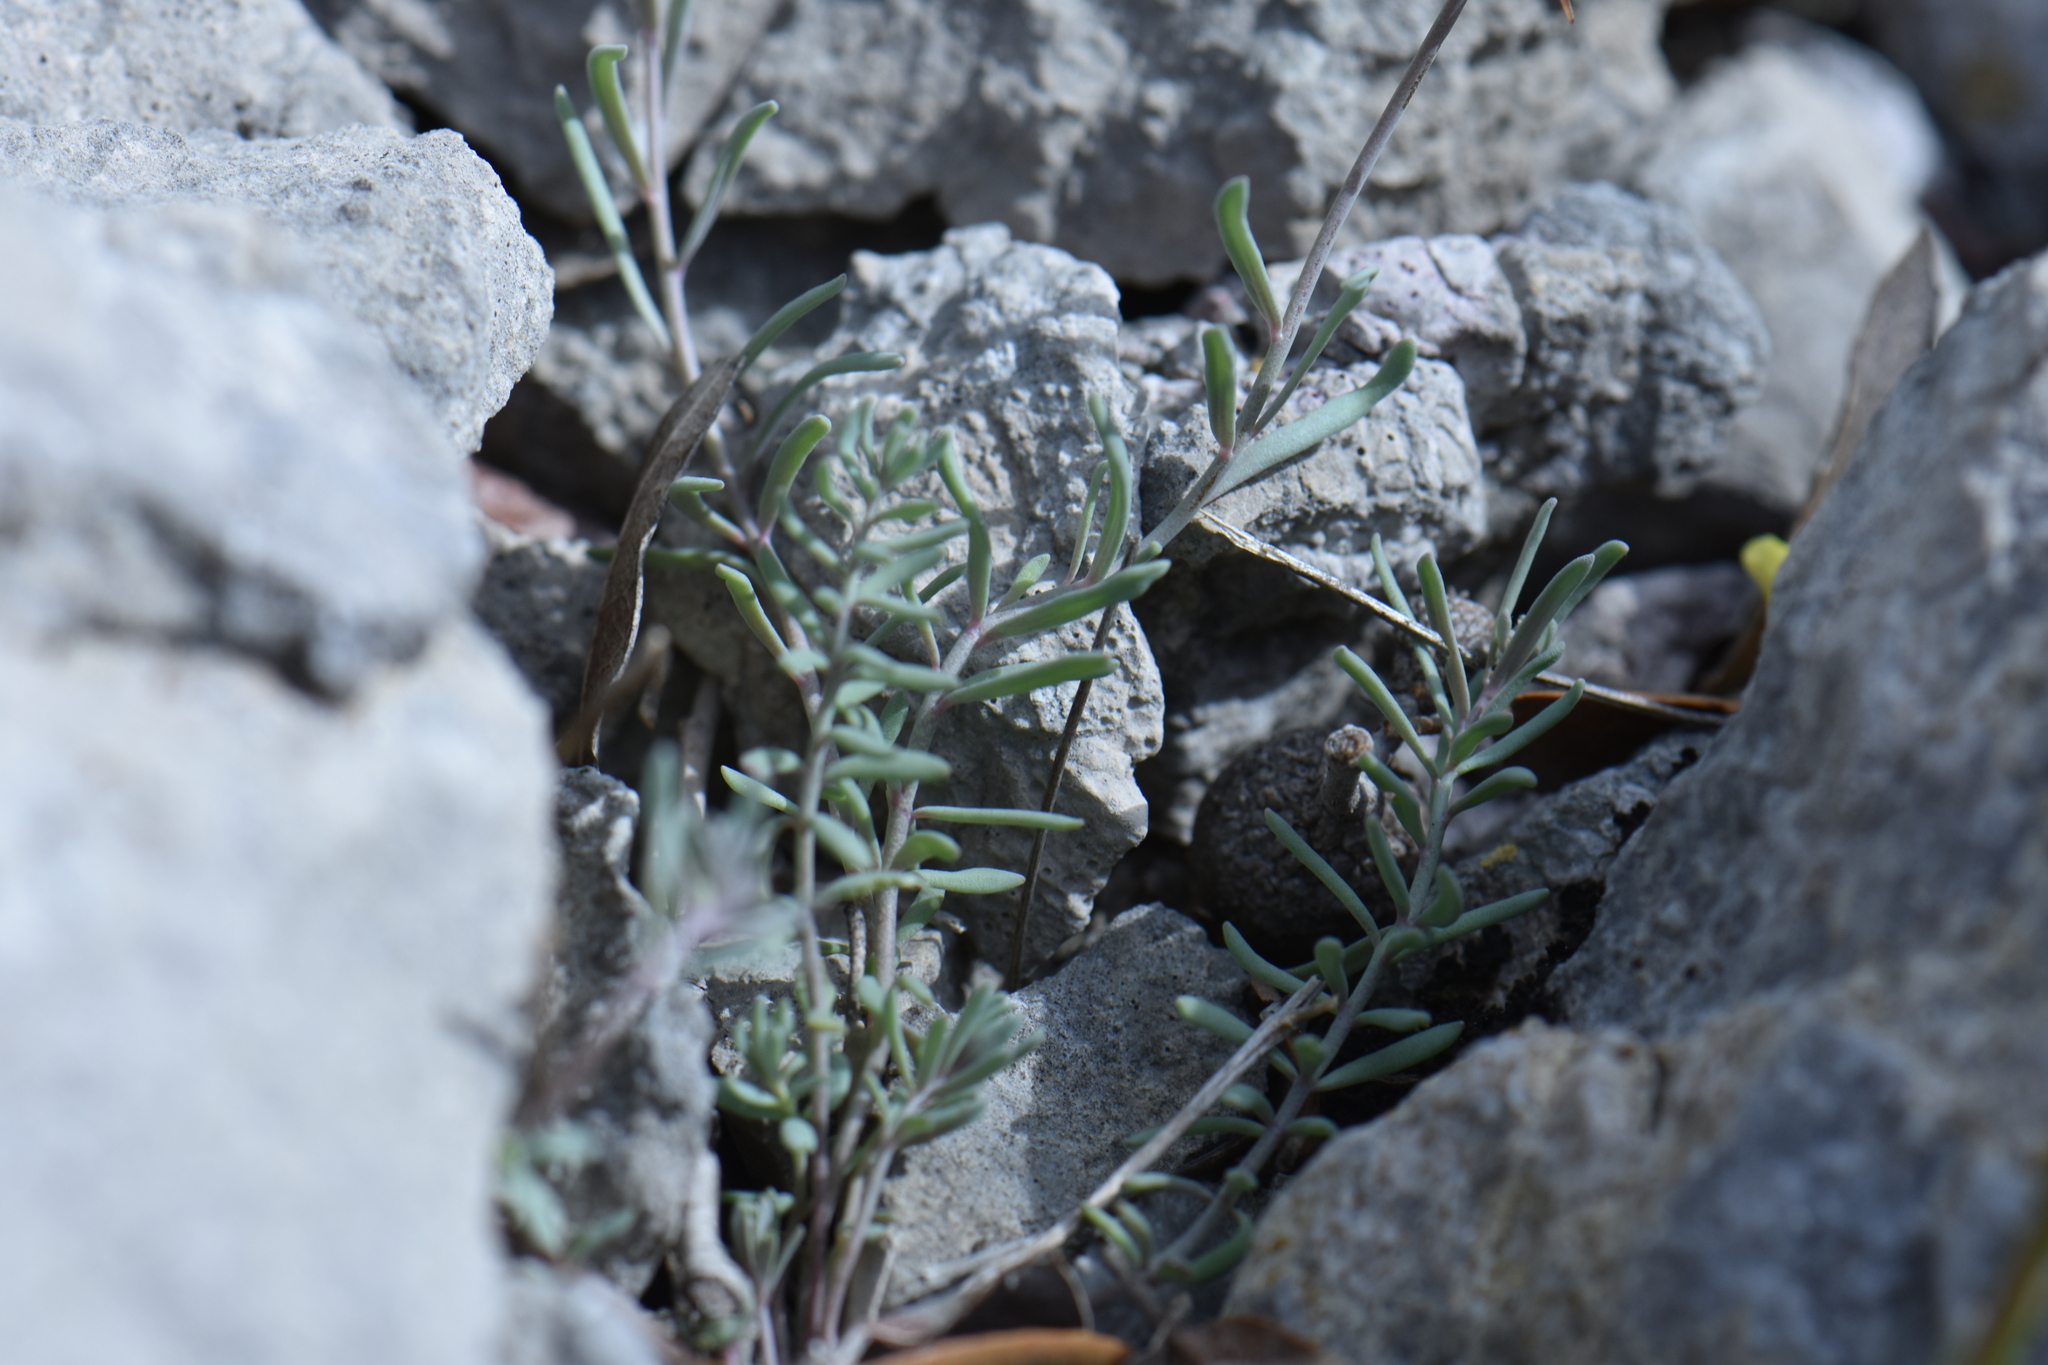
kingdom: Plantae
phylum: Tracheophyta
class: Magnoliopsida
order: Lamiales
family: Plantaginaceae
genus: Linaria
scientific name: Linaria supina
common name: Prostrate toadflax
